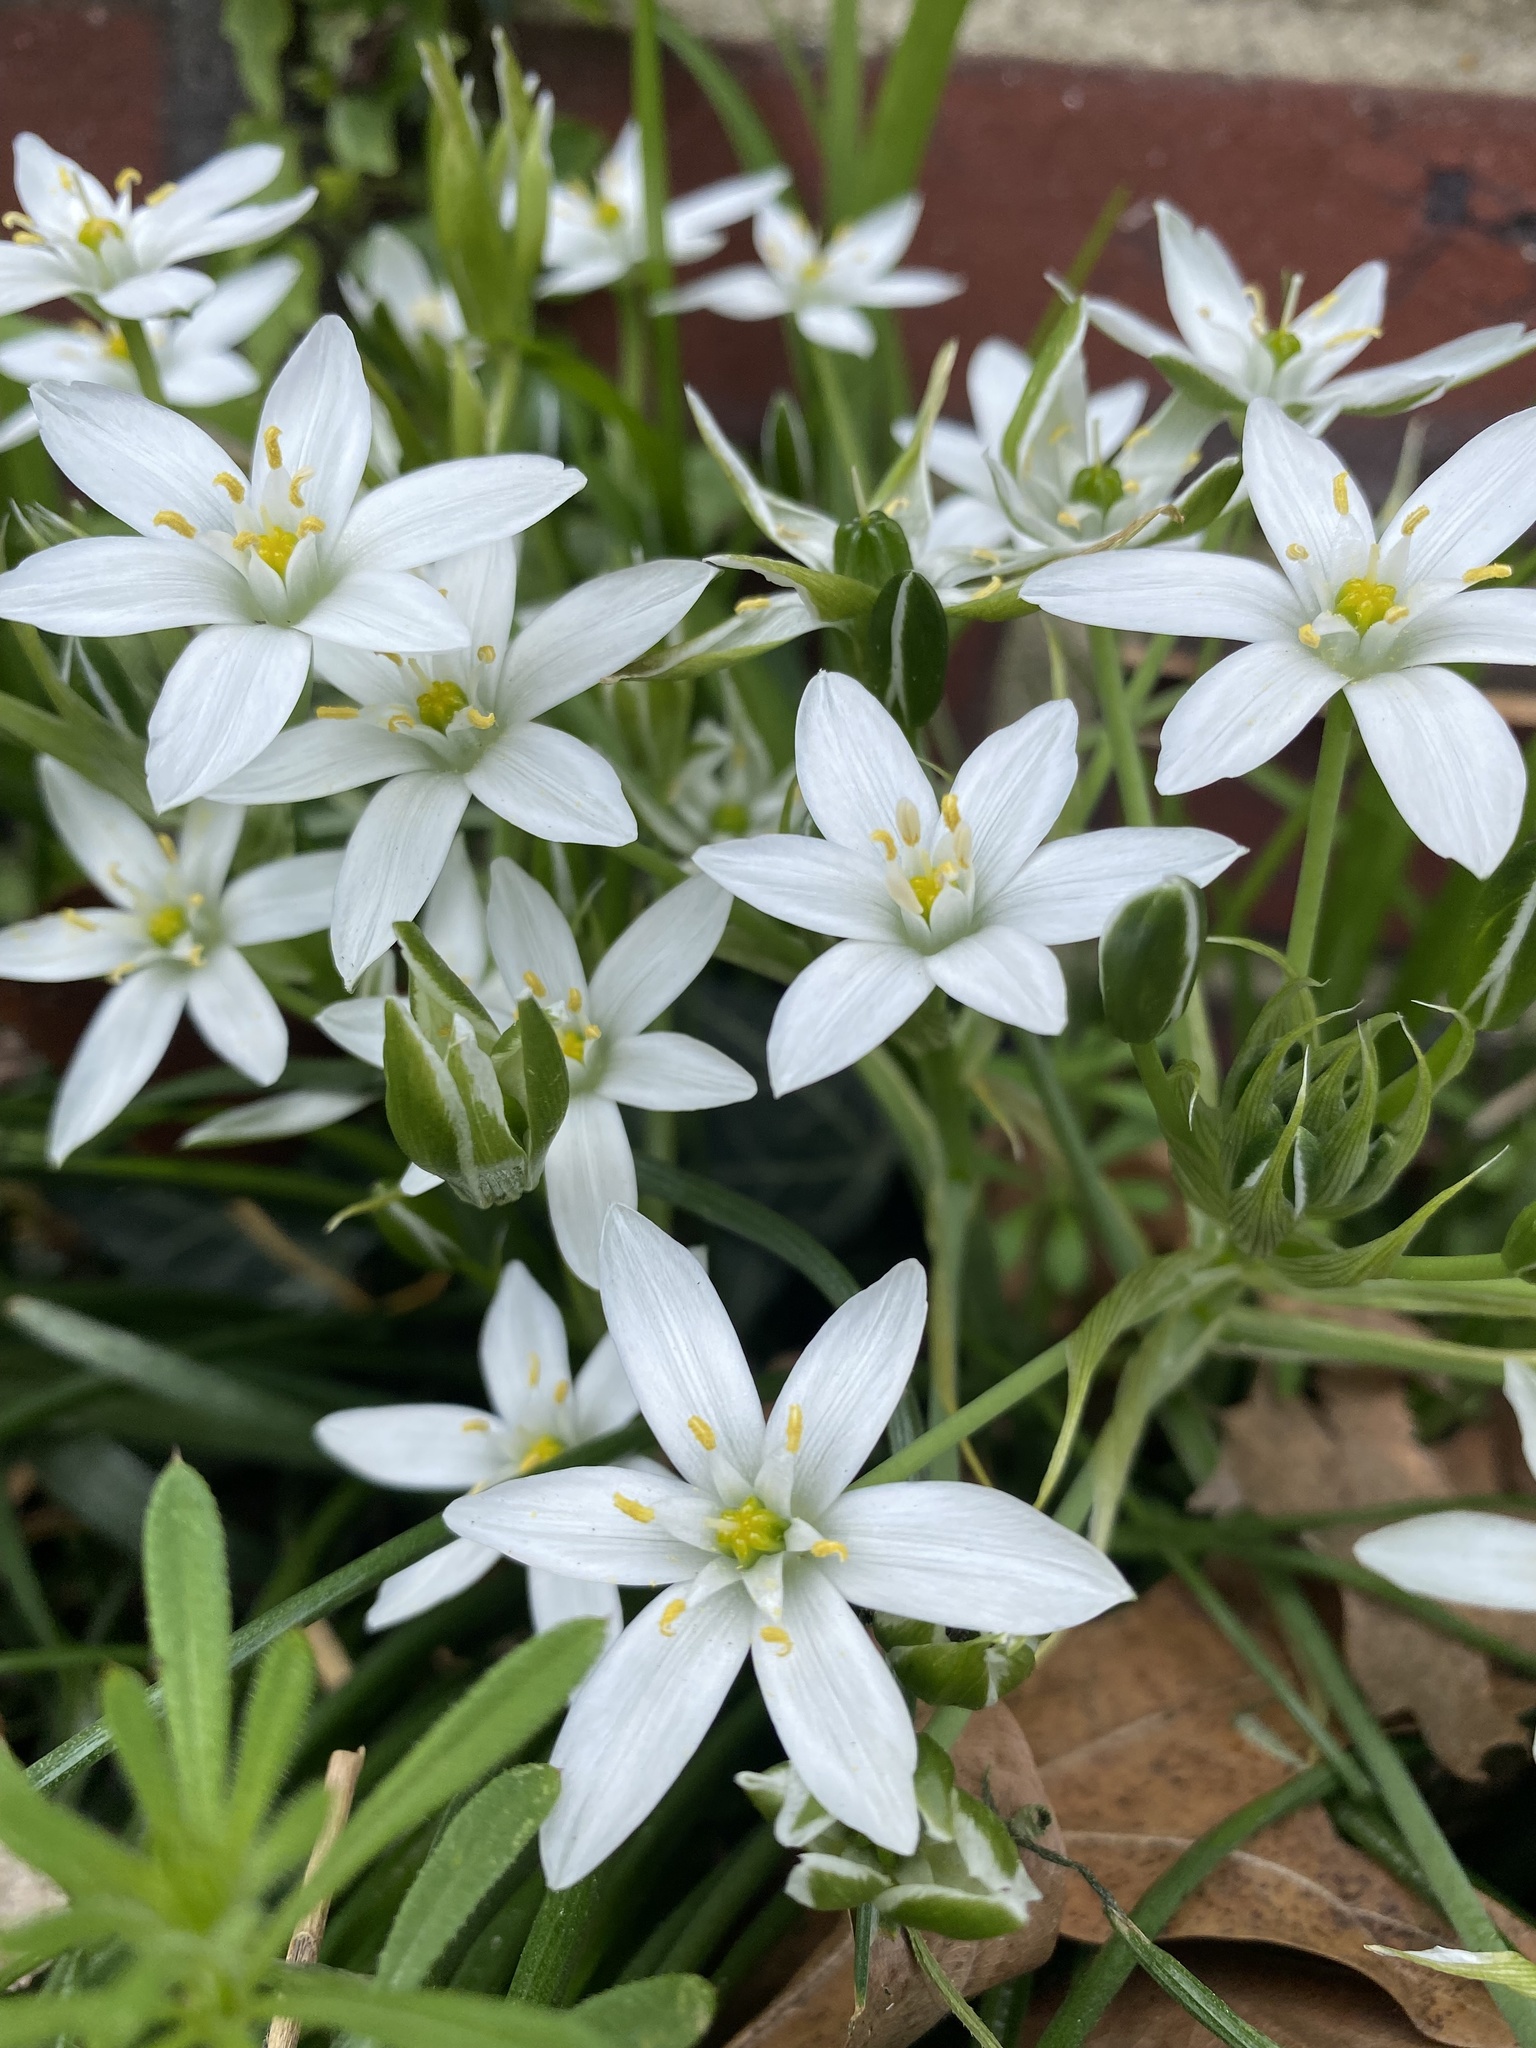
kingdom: Plantae
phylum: Tracheophyta
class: Liliopsida
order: Asparagales
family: Asparagaceae
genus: Ornithogalum
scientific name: Ornithogalum umbellatum
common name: Garden star-of-bethlehem
